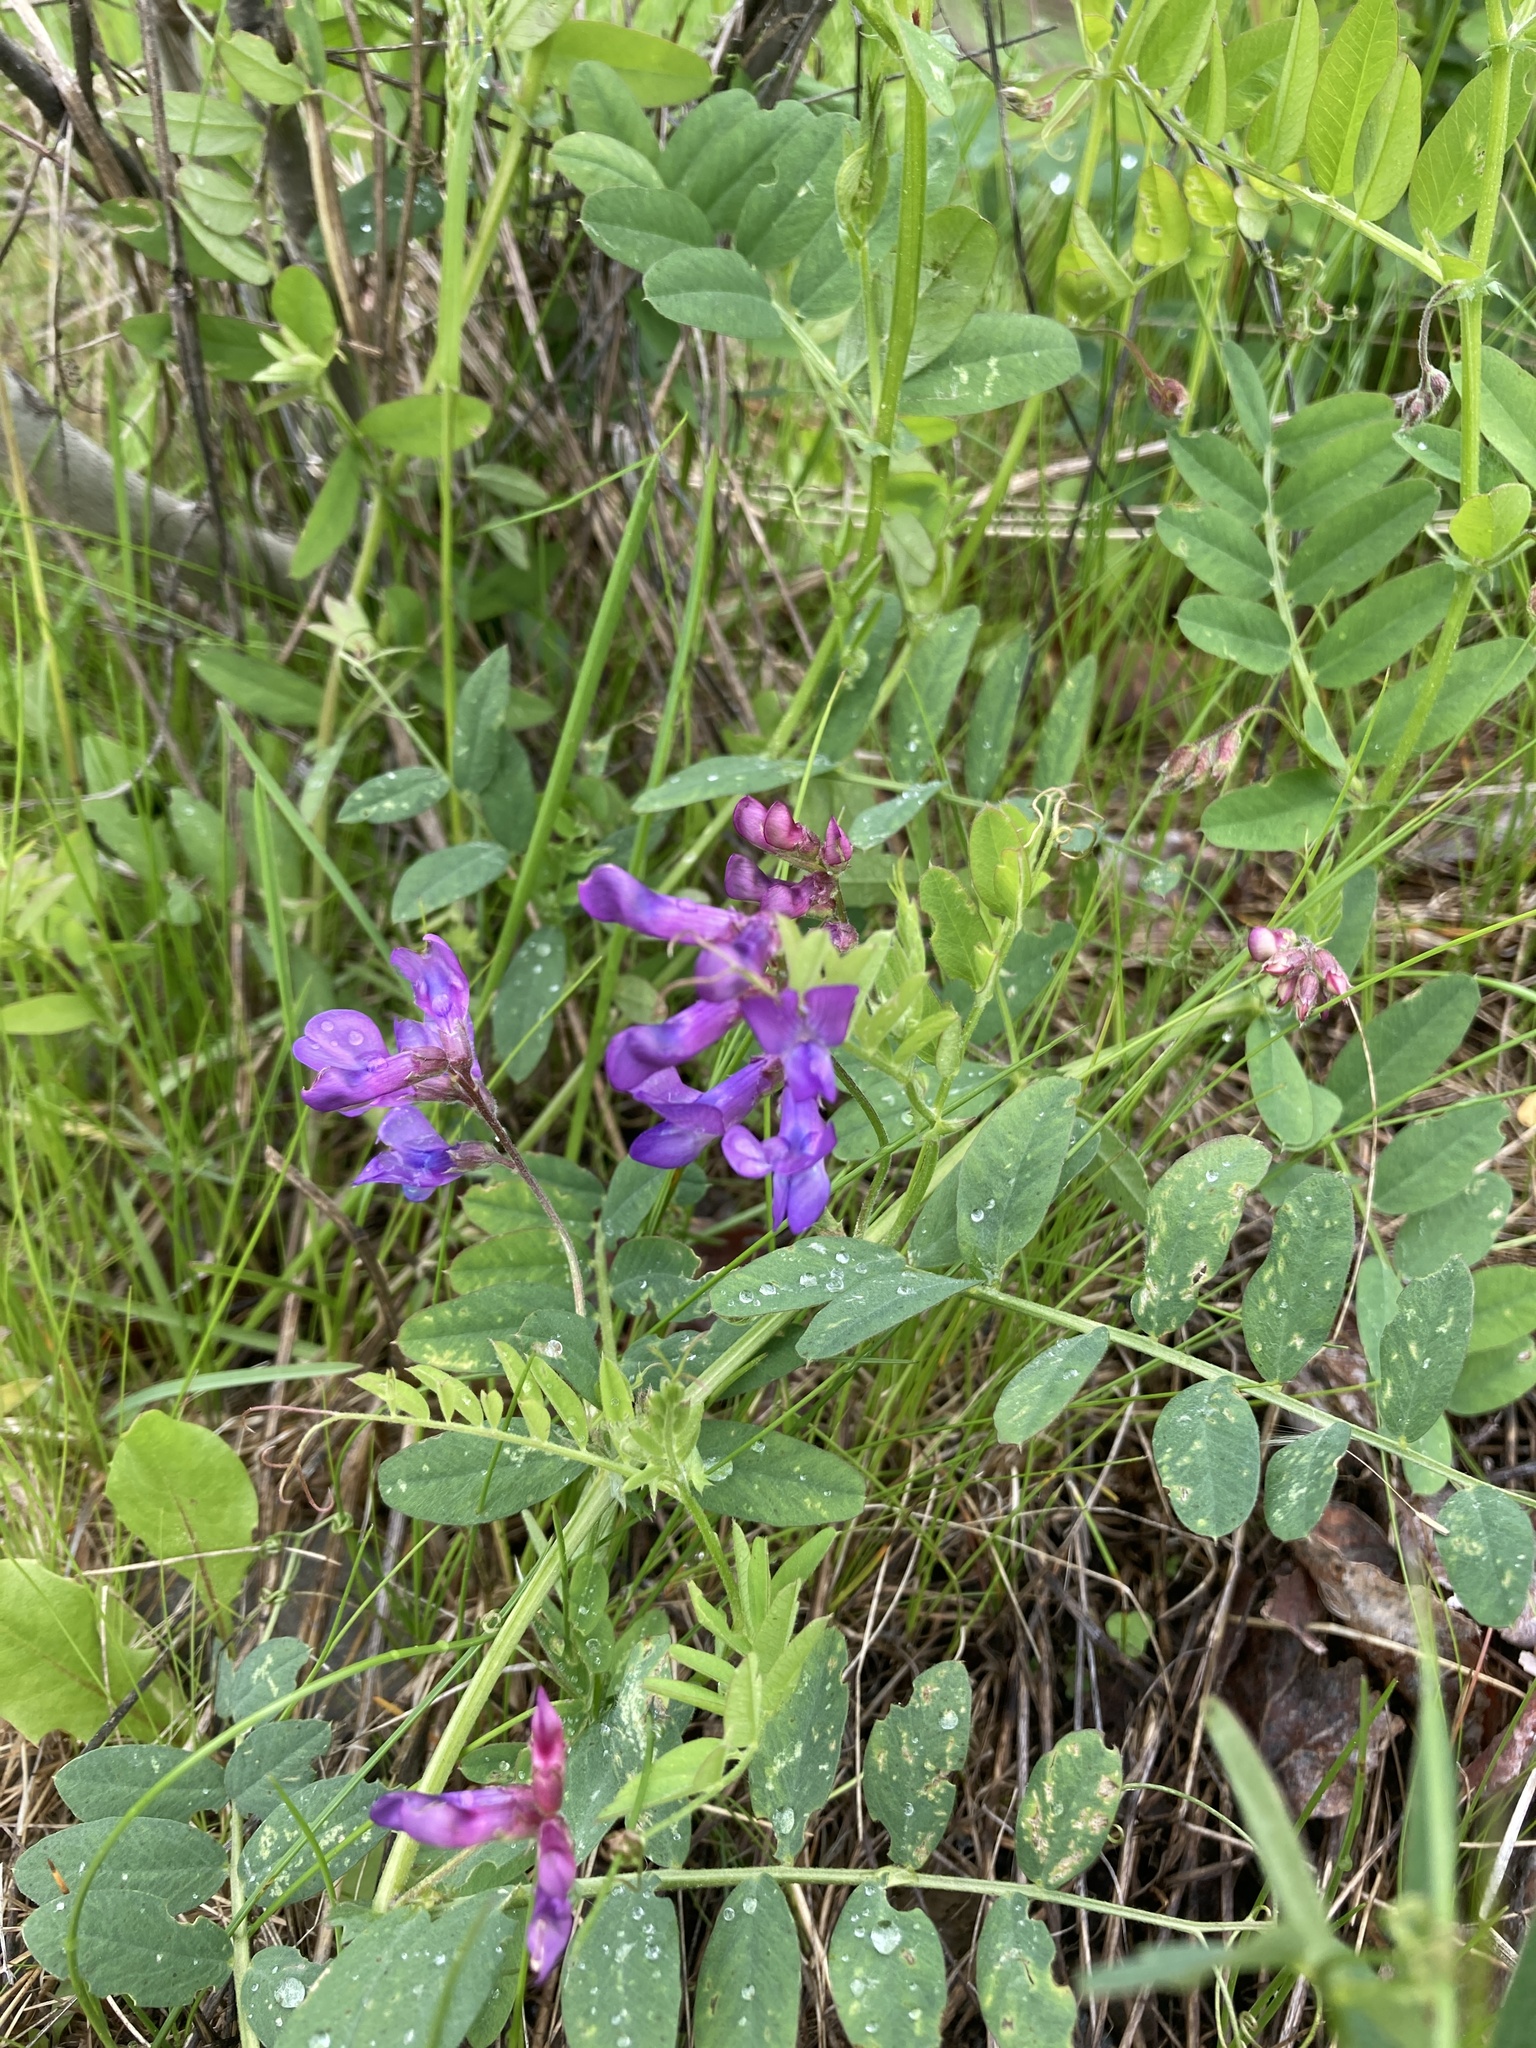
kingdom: Plantae
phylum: Tracheophyta
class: Magnoliopsida
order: Fabales
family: Fabaceae
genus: Vicia
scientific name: Vicia americana
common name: American vetch
